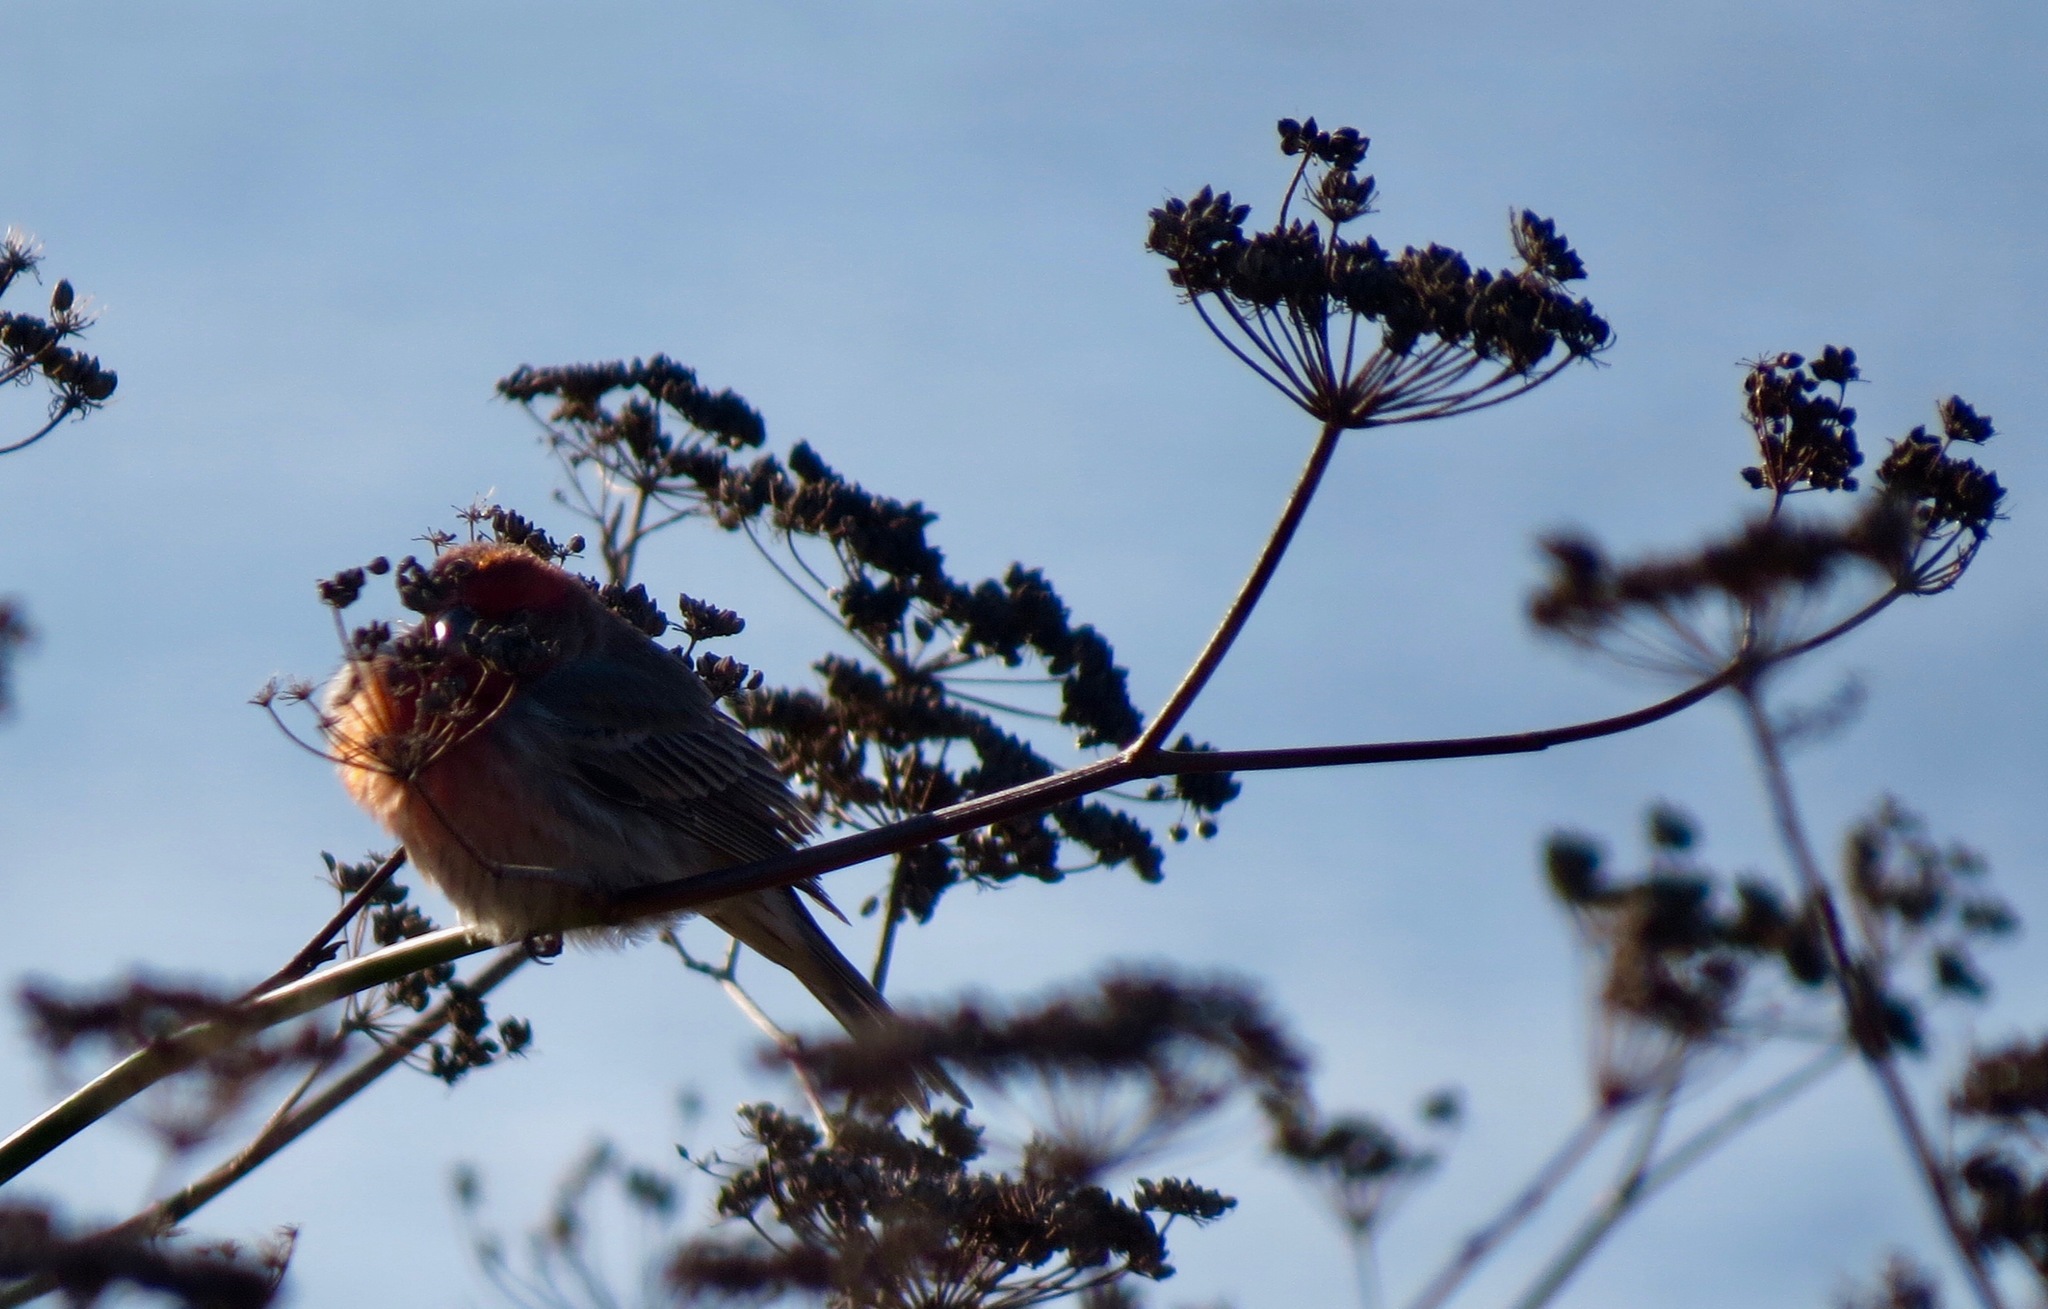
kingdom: Animalia
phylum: Chordata
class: Aves
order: Passeriformes
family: Fringillidae
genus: Haemorhous
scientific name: Haemorhous mexicanus
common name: House finch
